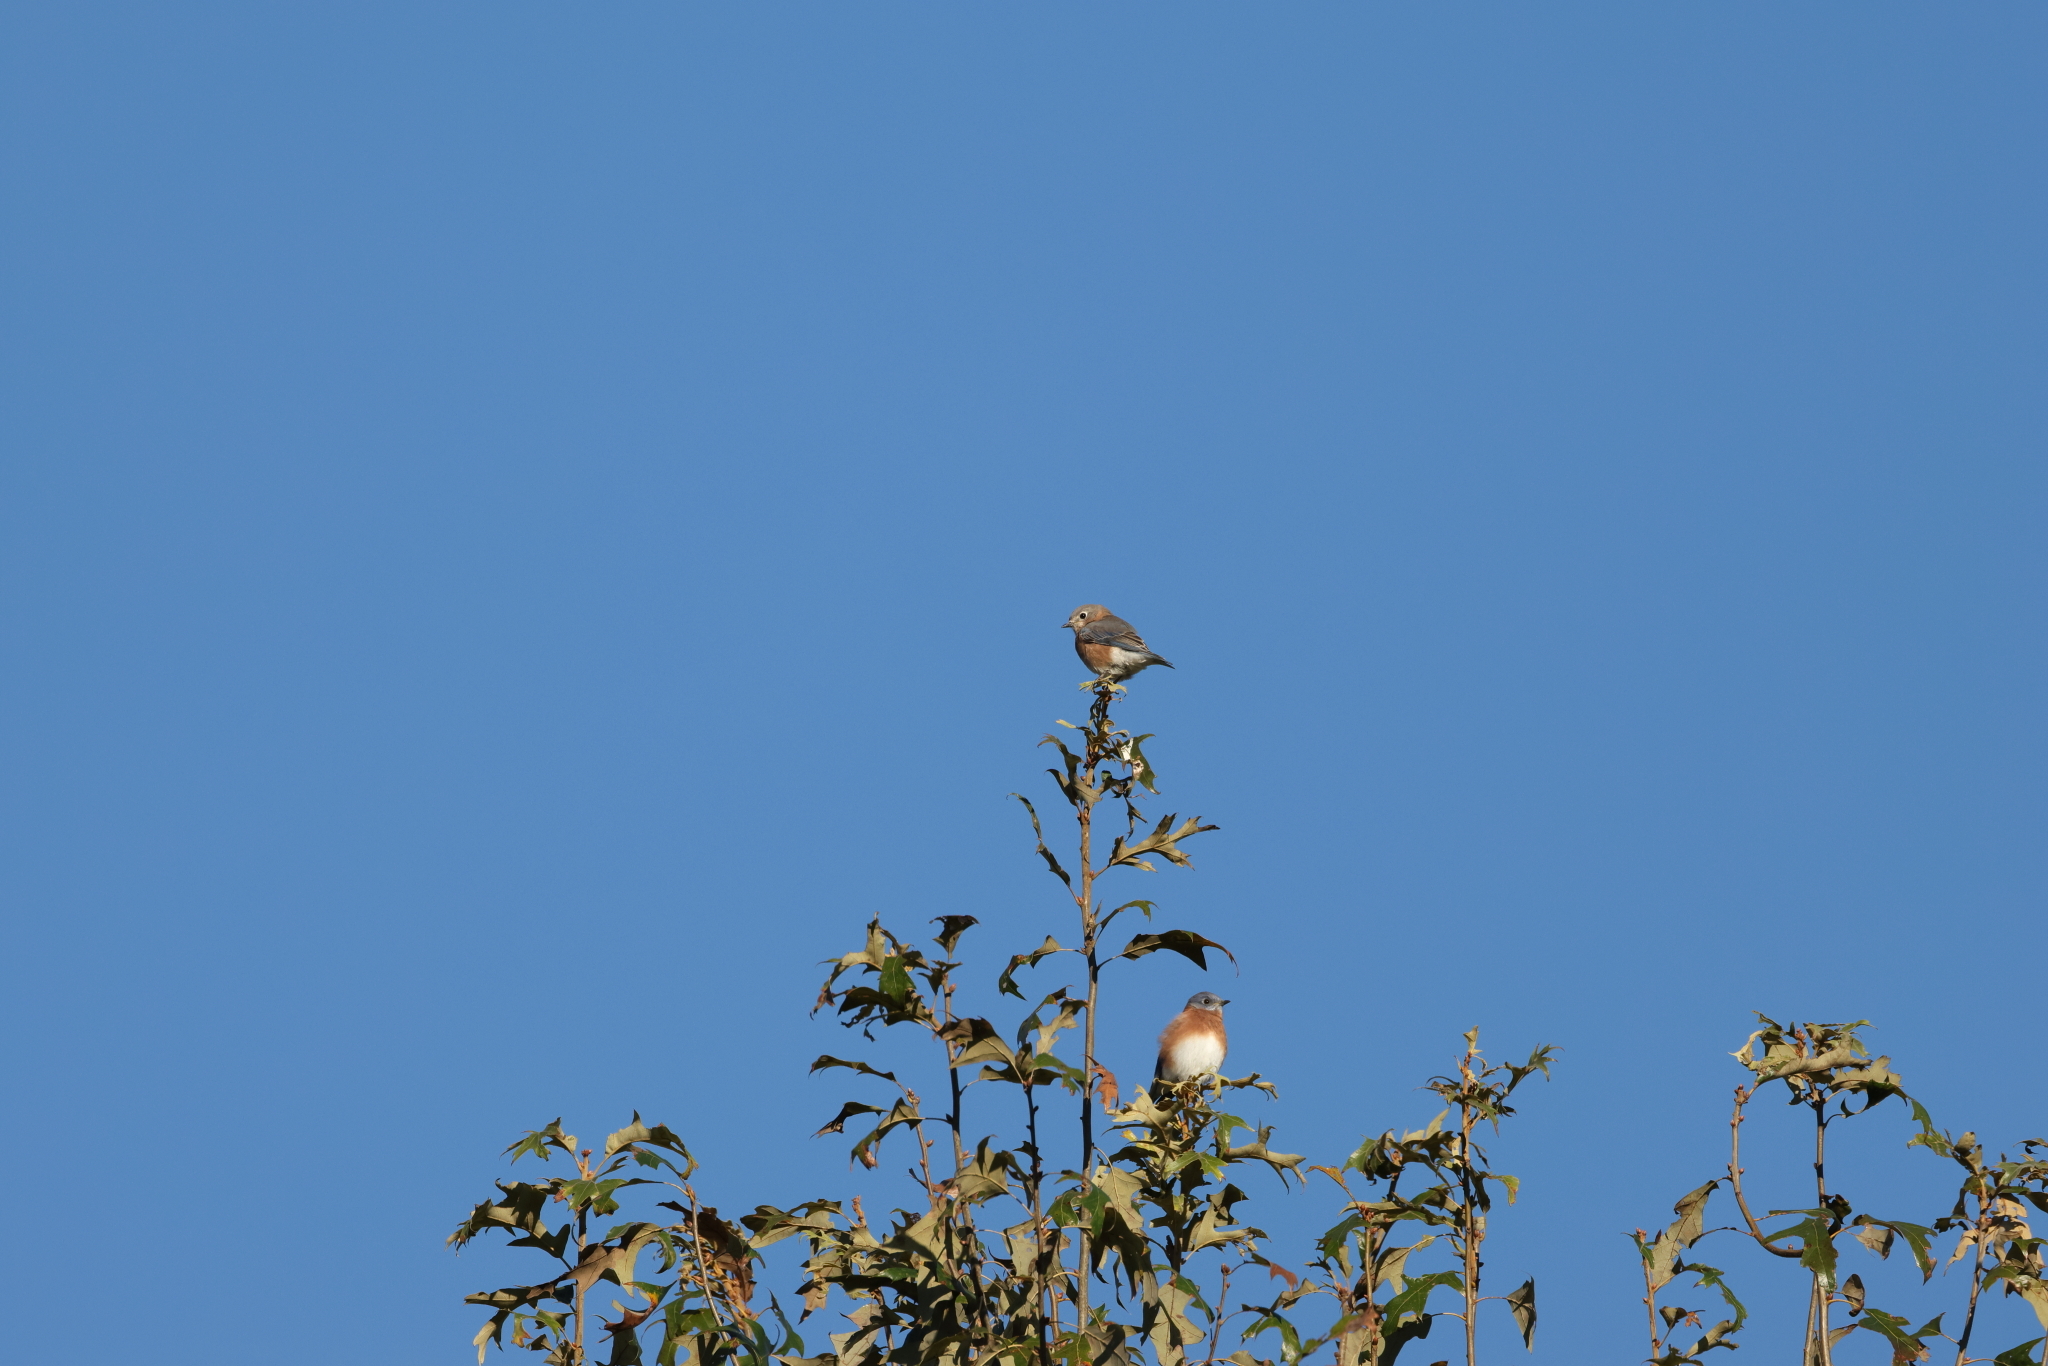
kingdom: Animalia
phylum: Chordata
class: Aves
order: Passeriformes
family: Turdidae
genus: Sialia
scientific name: Sialia sialis
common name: Eastern bluebird
